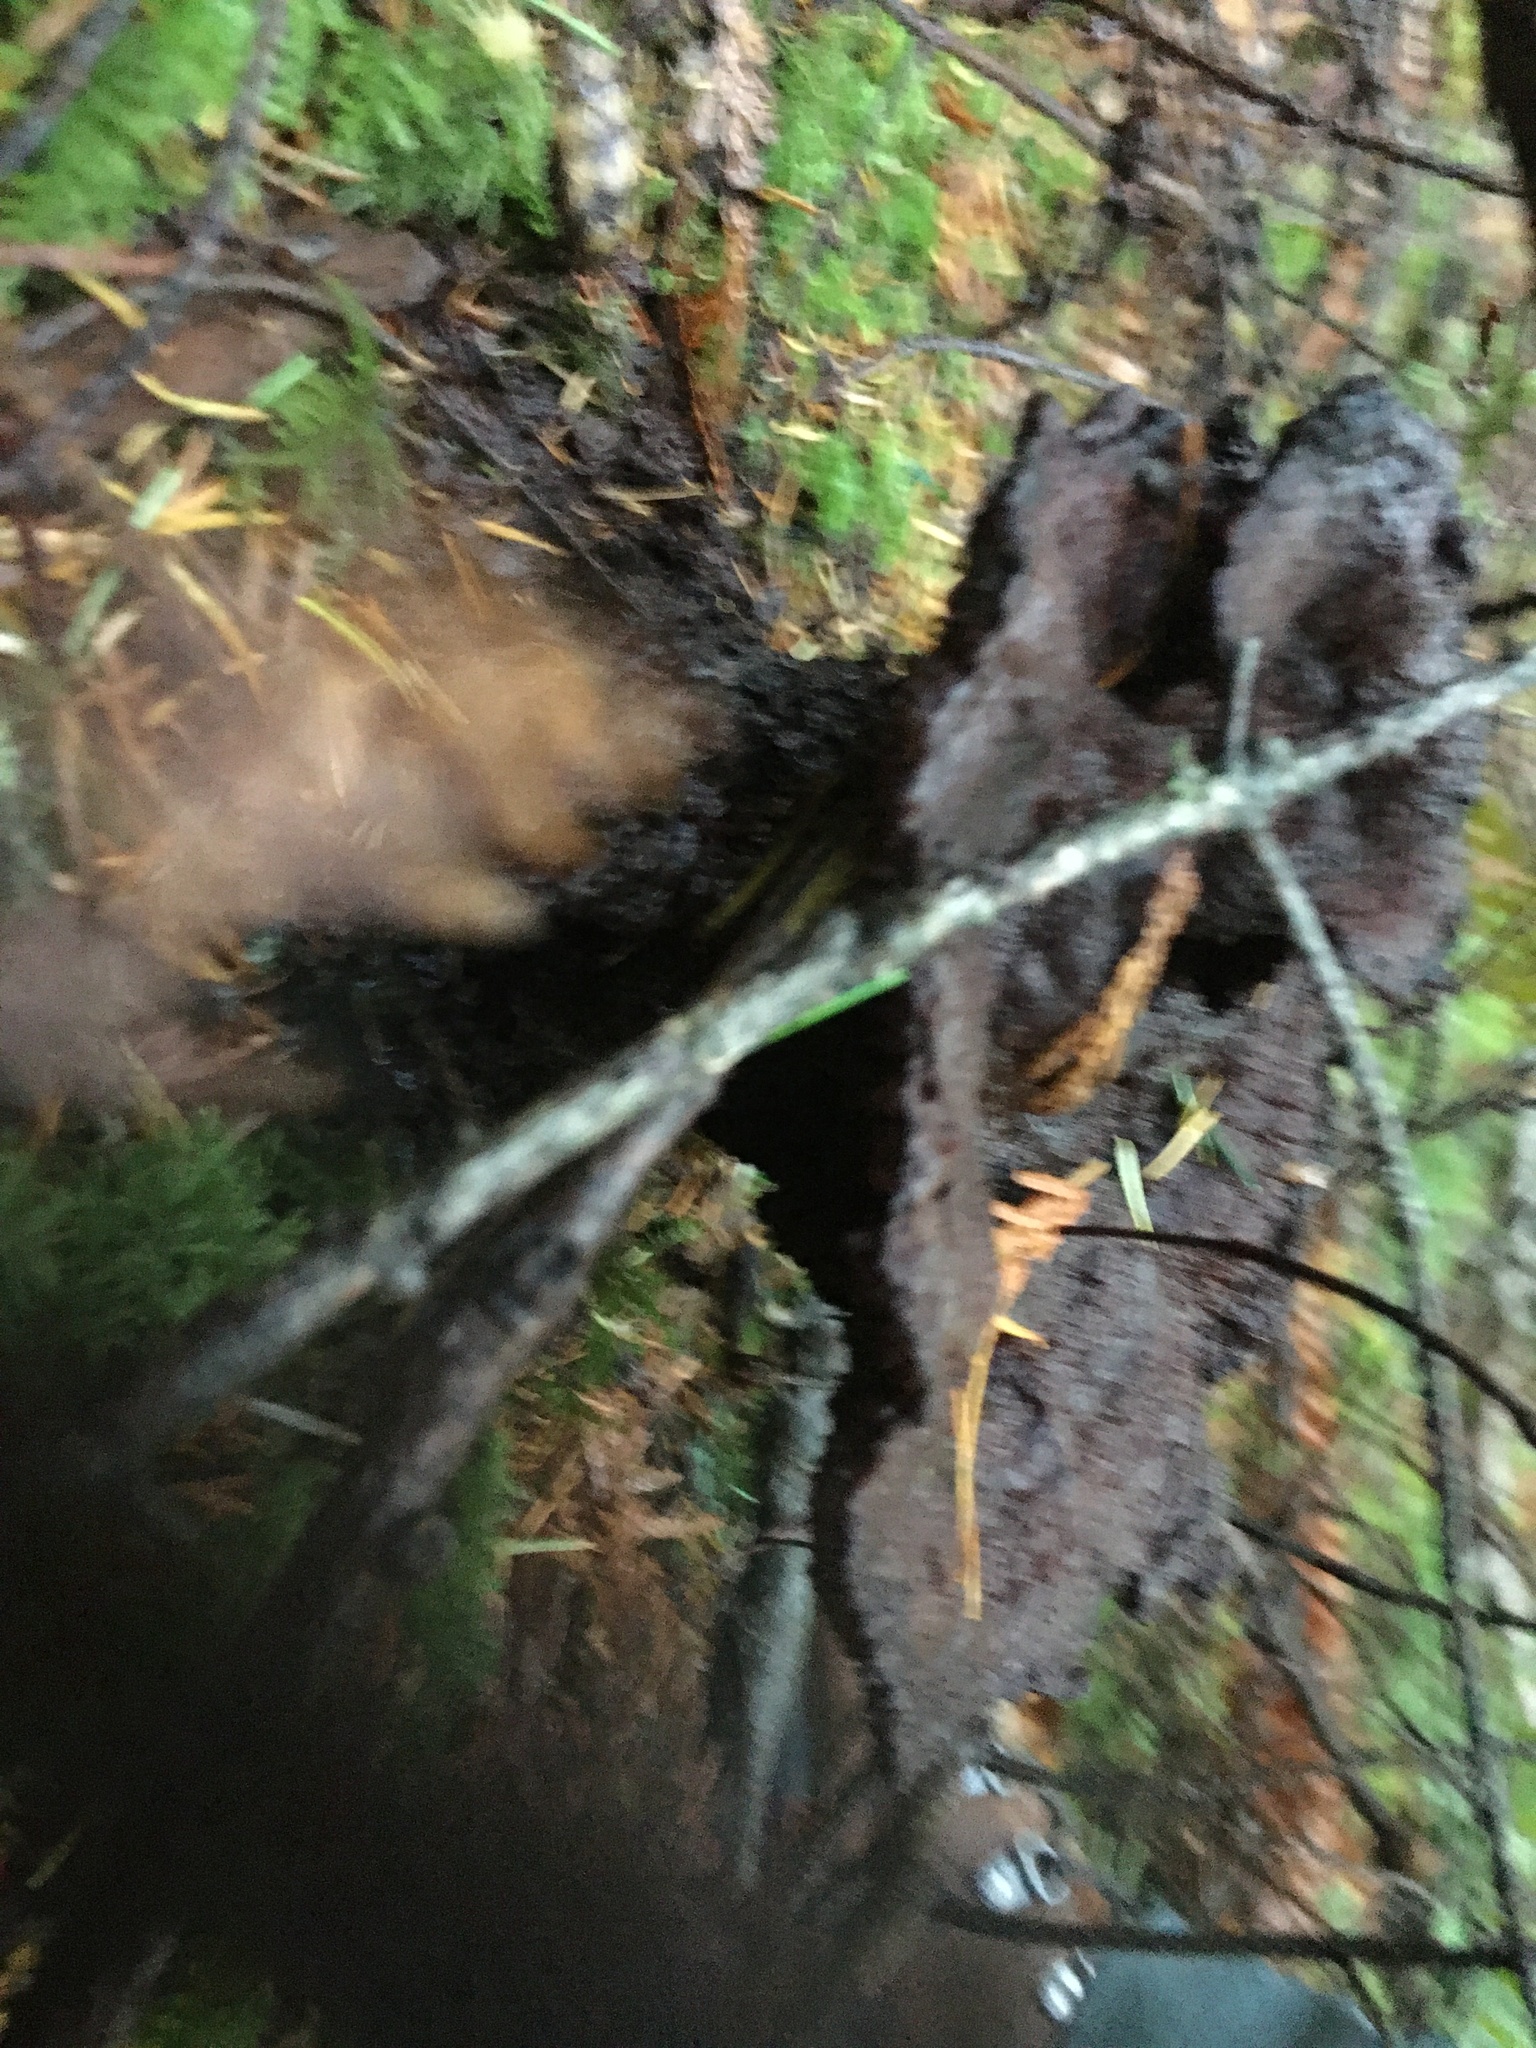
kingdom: Fungi
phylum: Basidiomycota
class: Agaricomycetes
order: Polyporales
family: Laetiporaceae
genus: Phaeolus
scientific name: Phaeolus schweinitzii
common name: Dyer's mazegill
